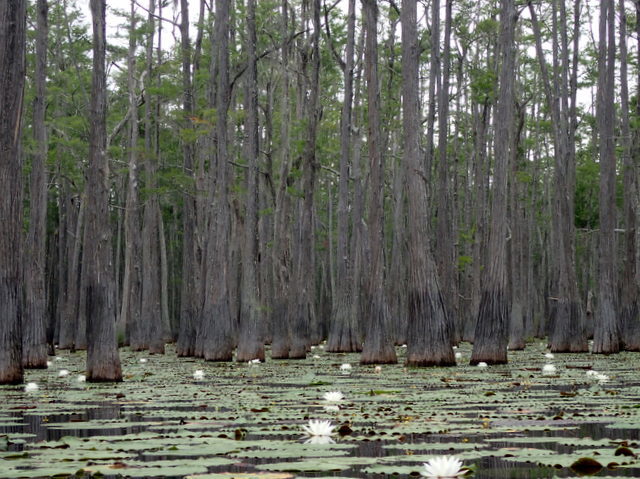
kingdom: Plantae
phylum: Tracheophyta
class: Magnoliopsida
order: Nymphaeales
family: Nymphaeaceae
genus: Nymphaea
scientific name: Nymphaea odorata
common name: Fragrant water-lily
